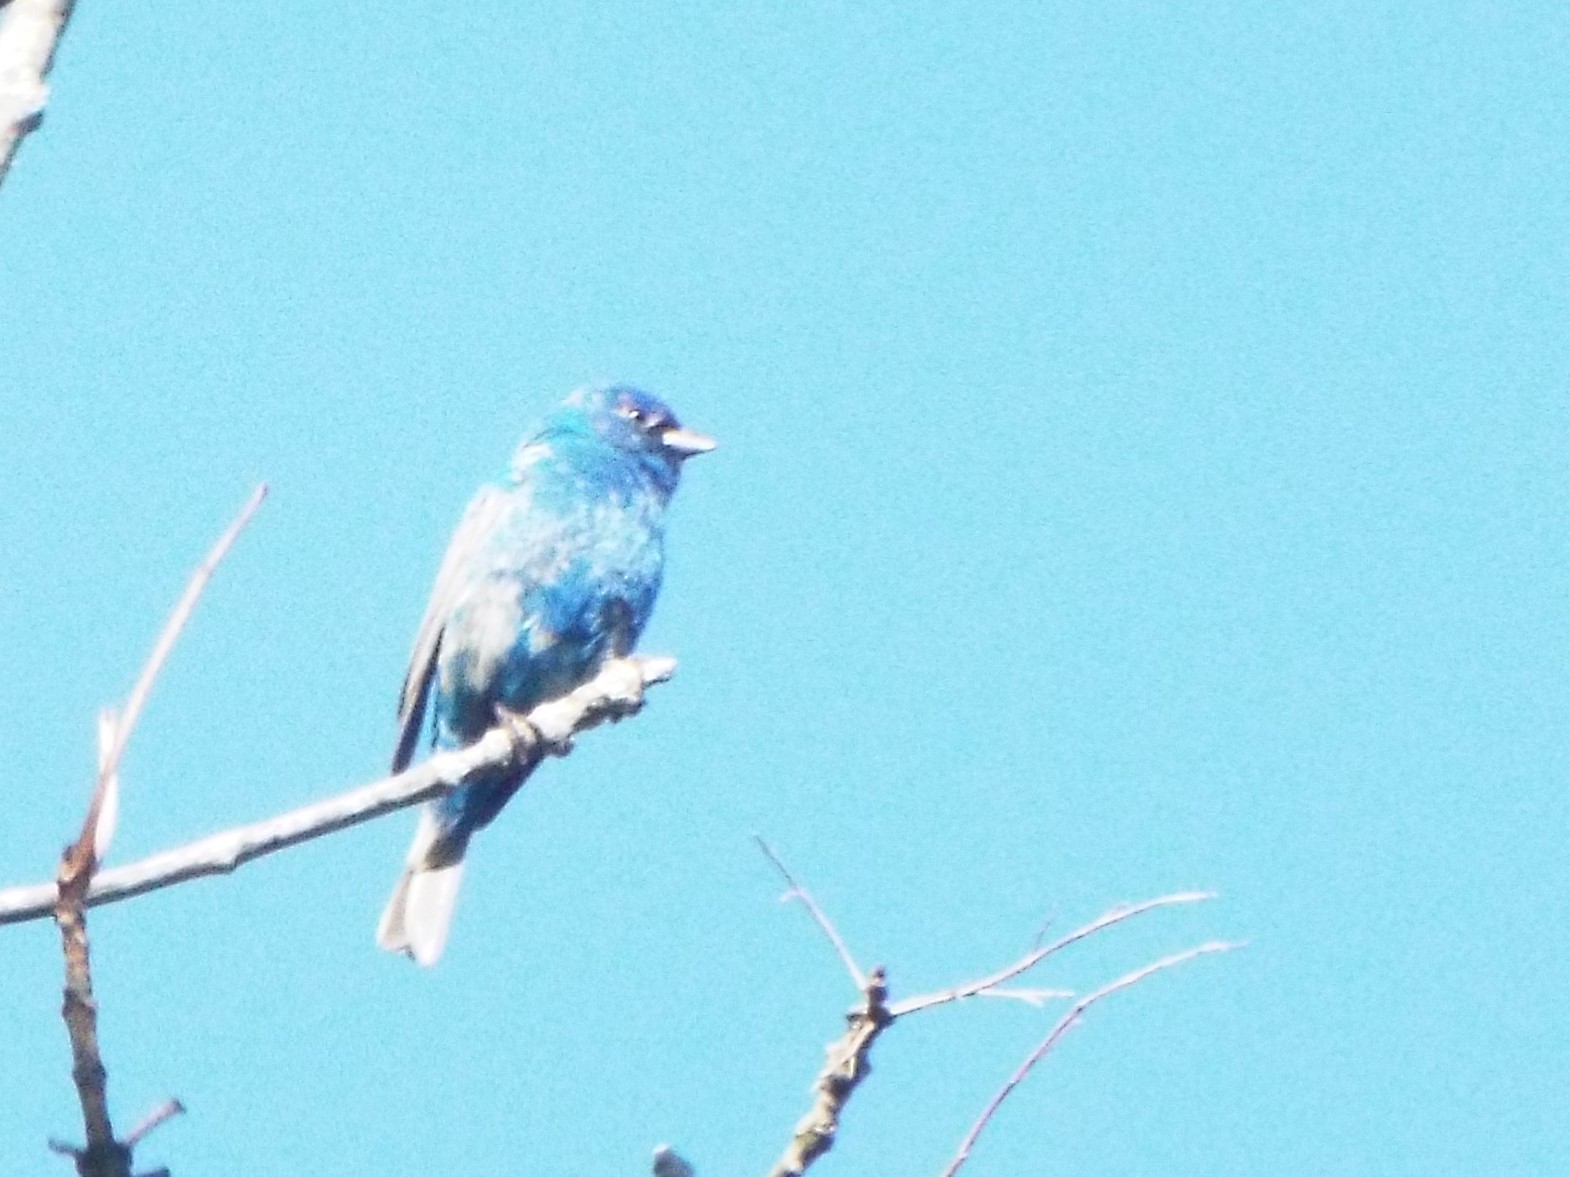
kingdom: Animalia
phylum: Chordata
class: Aves
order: Passeriformes
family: Cardinalidae
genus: Passerina
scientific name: Passerina cyanea
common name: Indigo bunting
